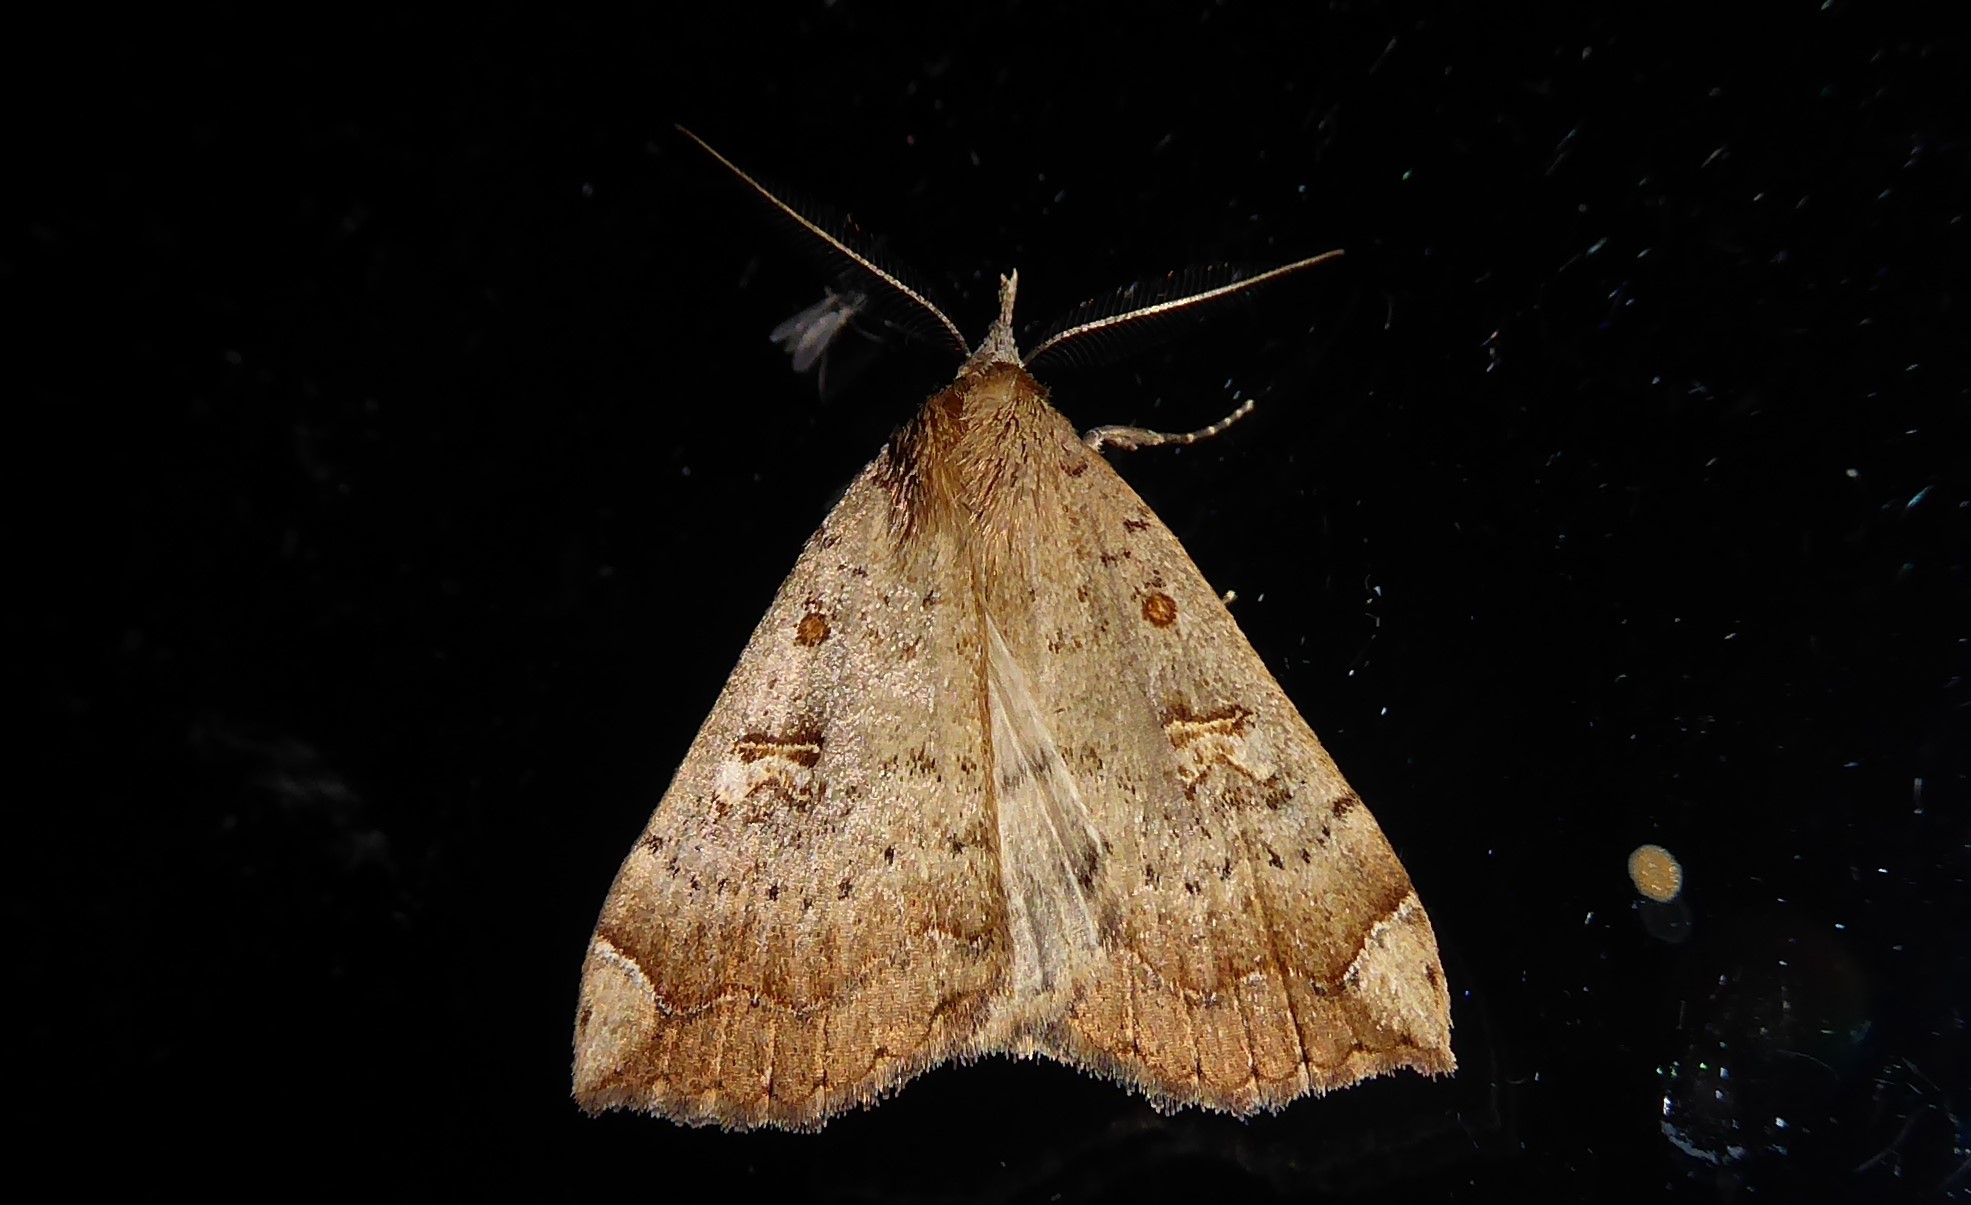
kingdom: Animalia
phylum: Arthropoda
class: Insecta
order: Lepidoptera
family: Erebidae
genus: Rhapsa
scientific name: Rhapsa scotosialis
